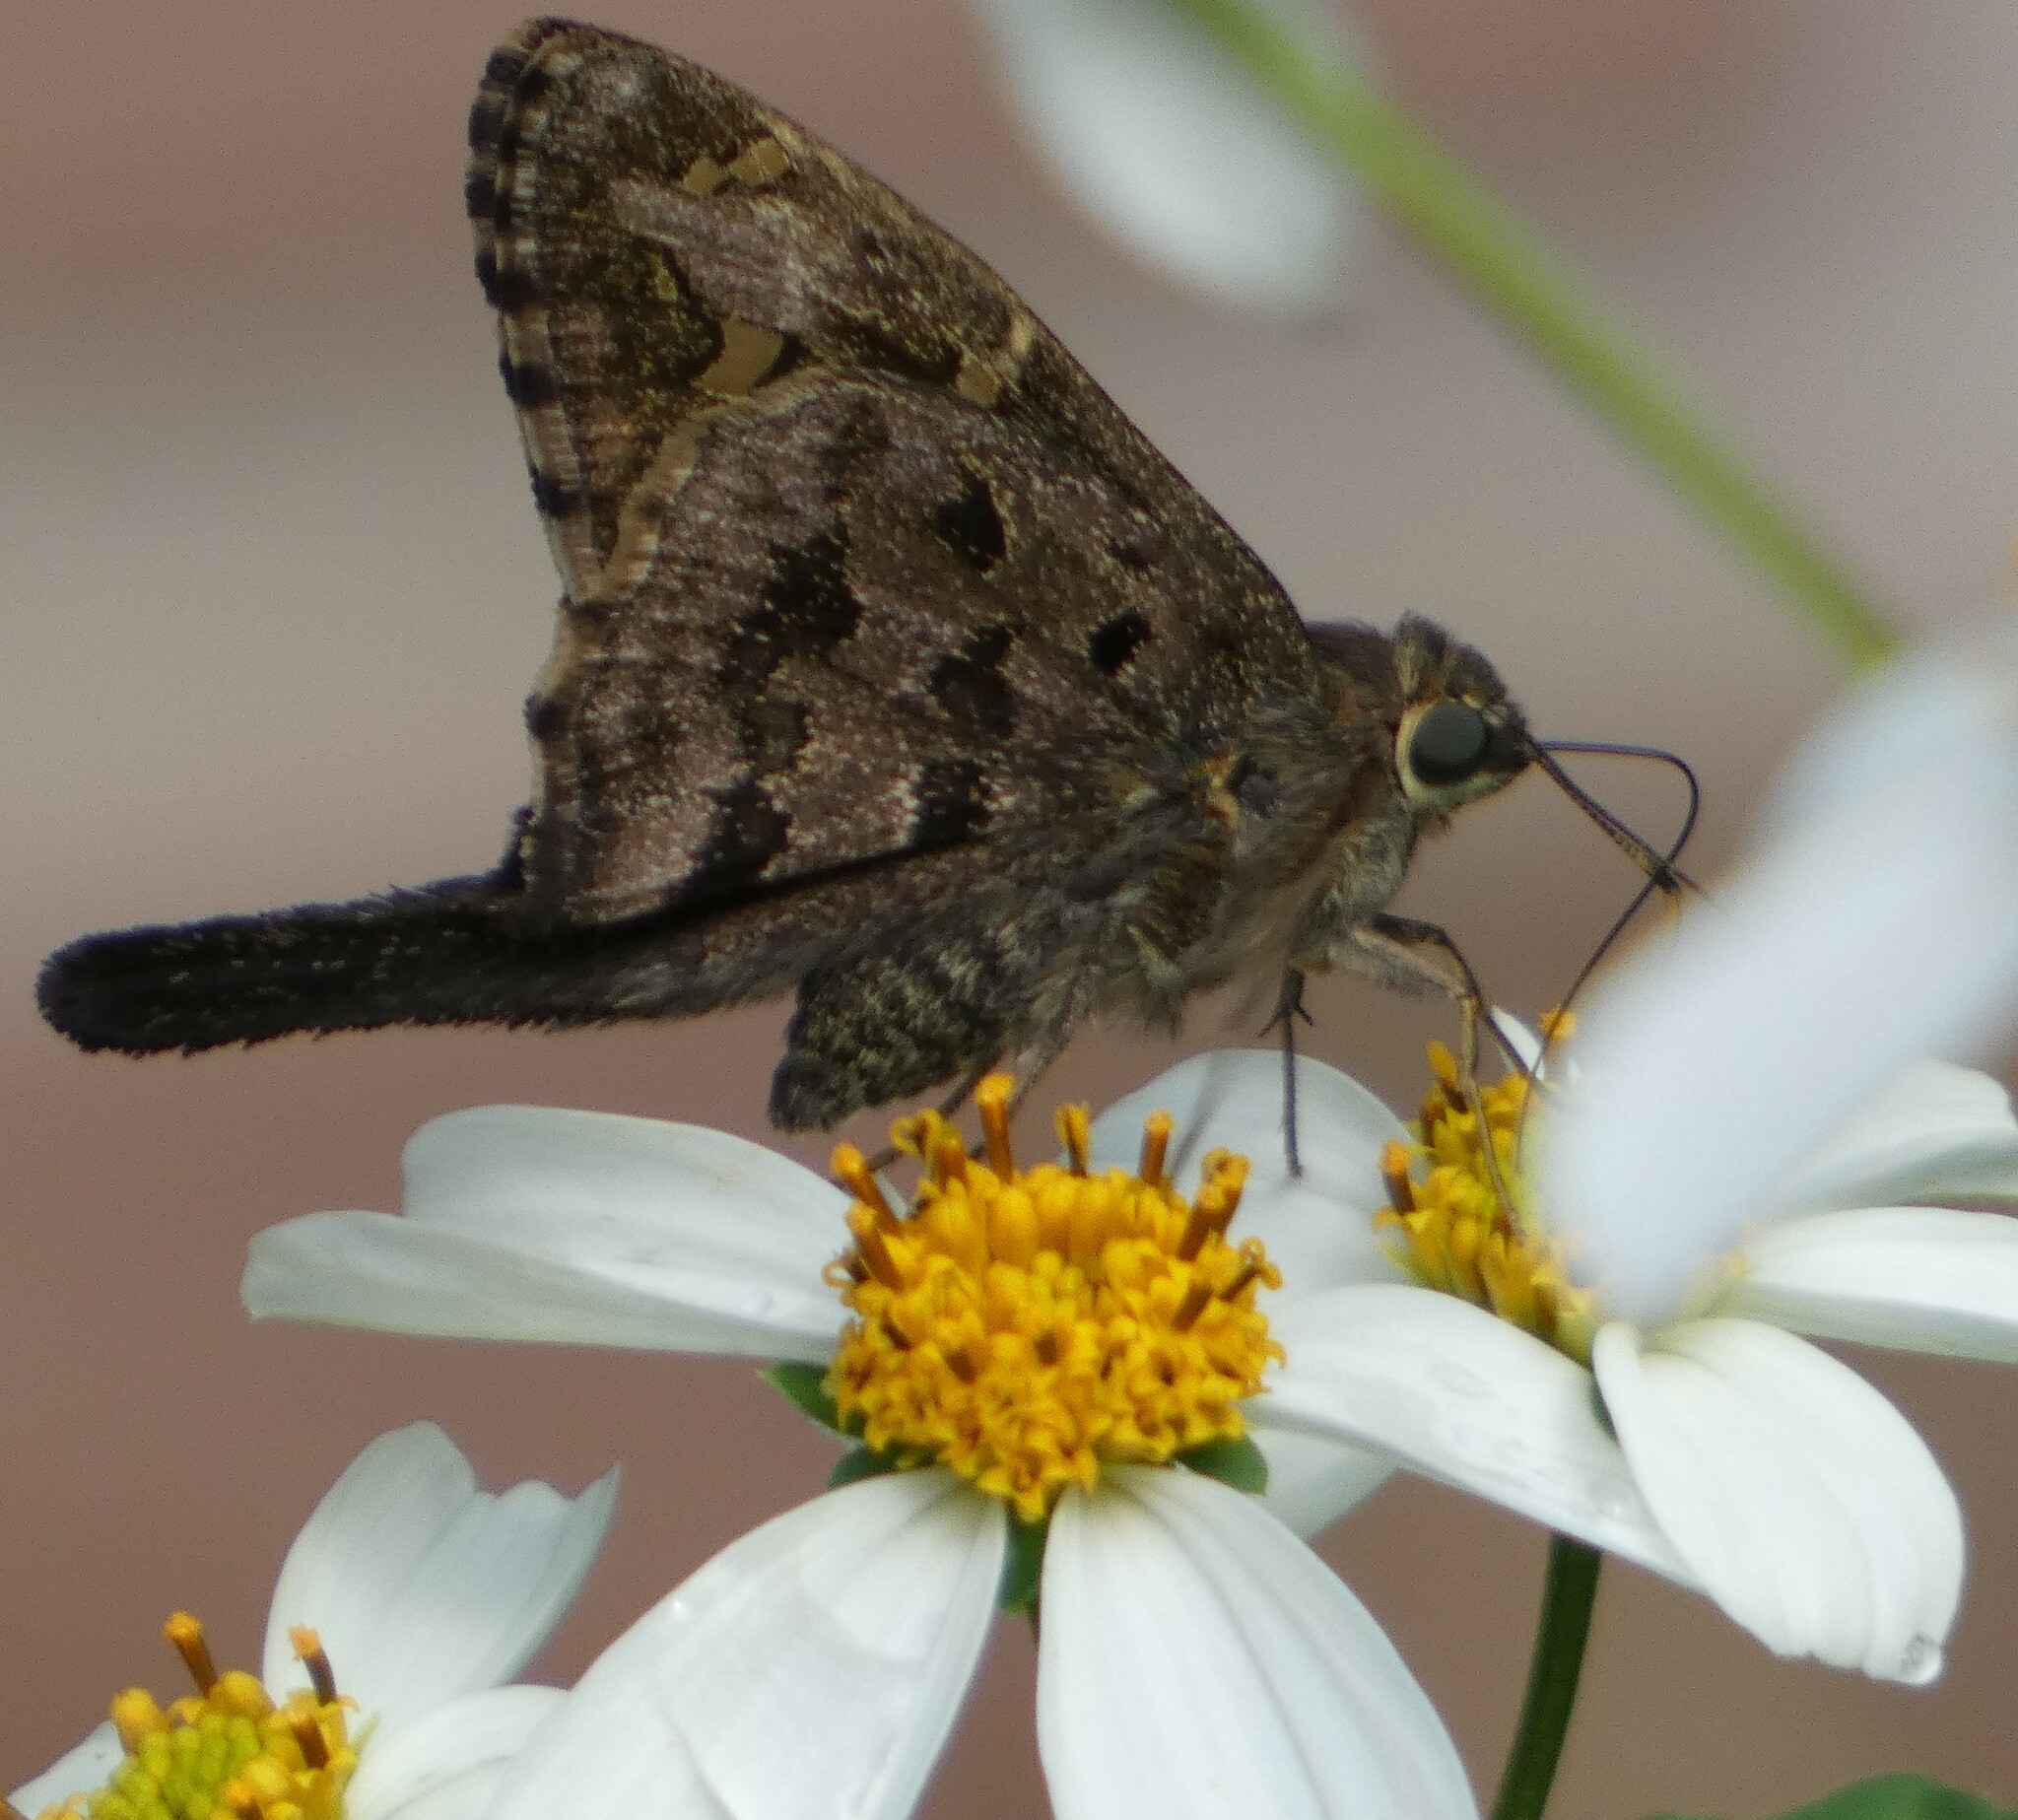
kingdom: Animalia
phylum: Arthropoda
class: Insecta
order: Lepidoptera
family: Hesperiidae
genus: Thorybes
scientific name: Thorybes
